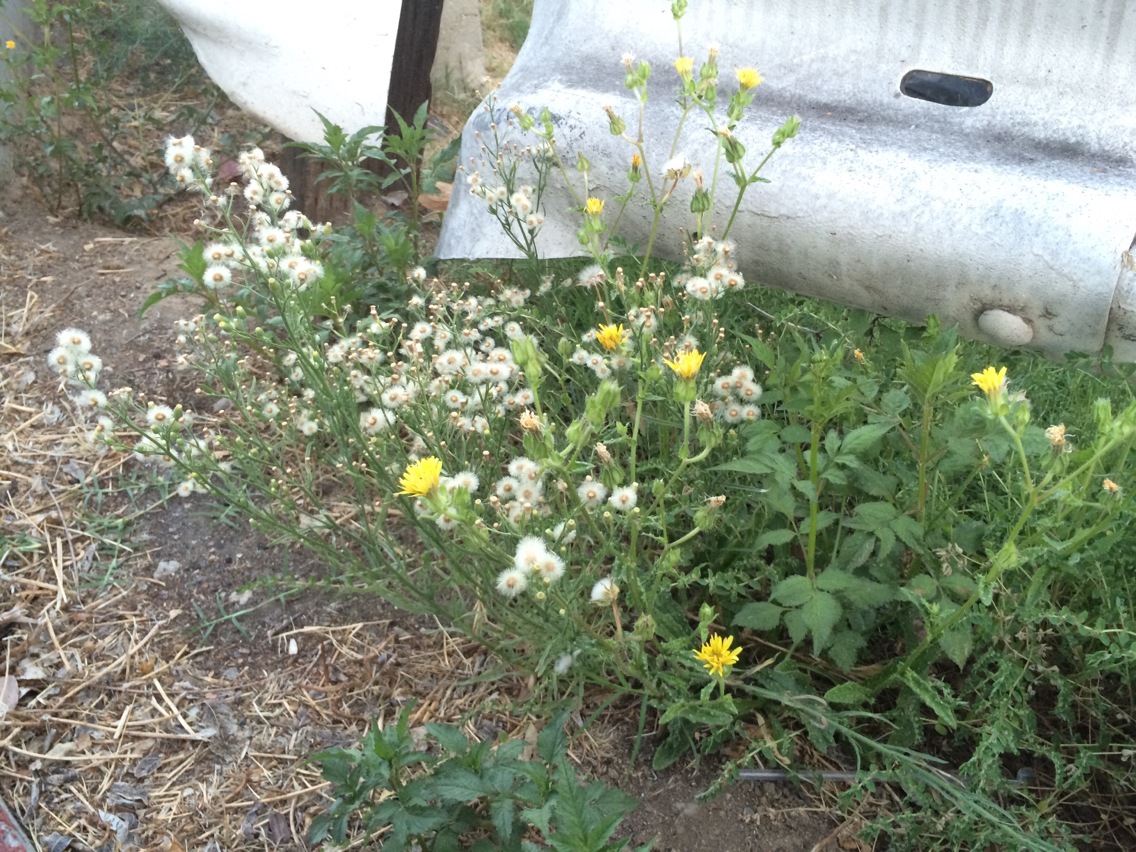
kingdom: Plantae
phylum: Tracheophyta
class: Magnoliopsida
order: Asterales
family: Asteraceae
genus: Helminthotheca
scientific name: Helminthotheca echioides
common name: Ox-tongue
